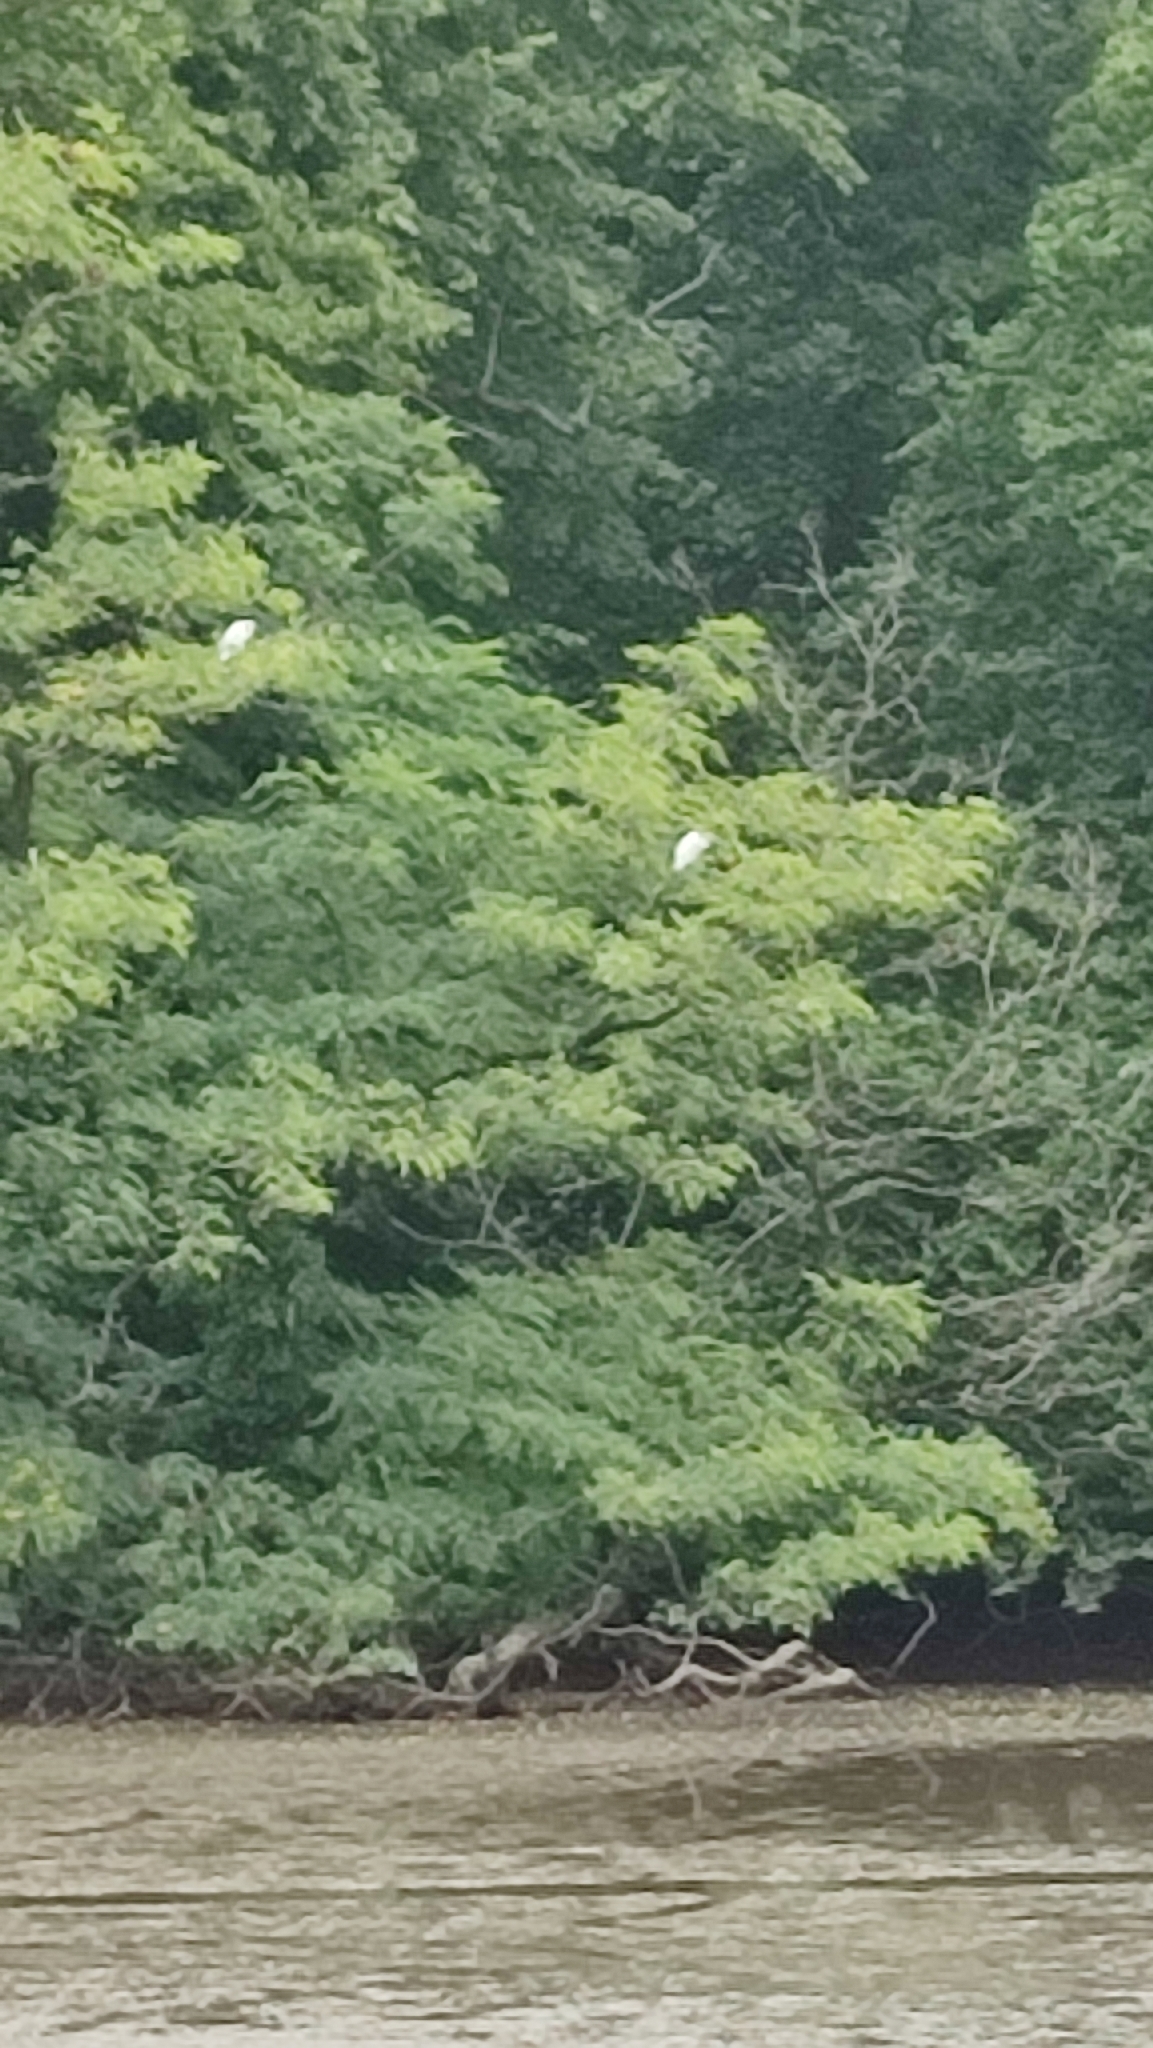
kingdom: Animalia
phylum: Chordata
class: Aves
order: Pelecaniformes
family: Ardeidae
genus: Egretta
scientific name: Egretta garzetta
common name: Little egret
